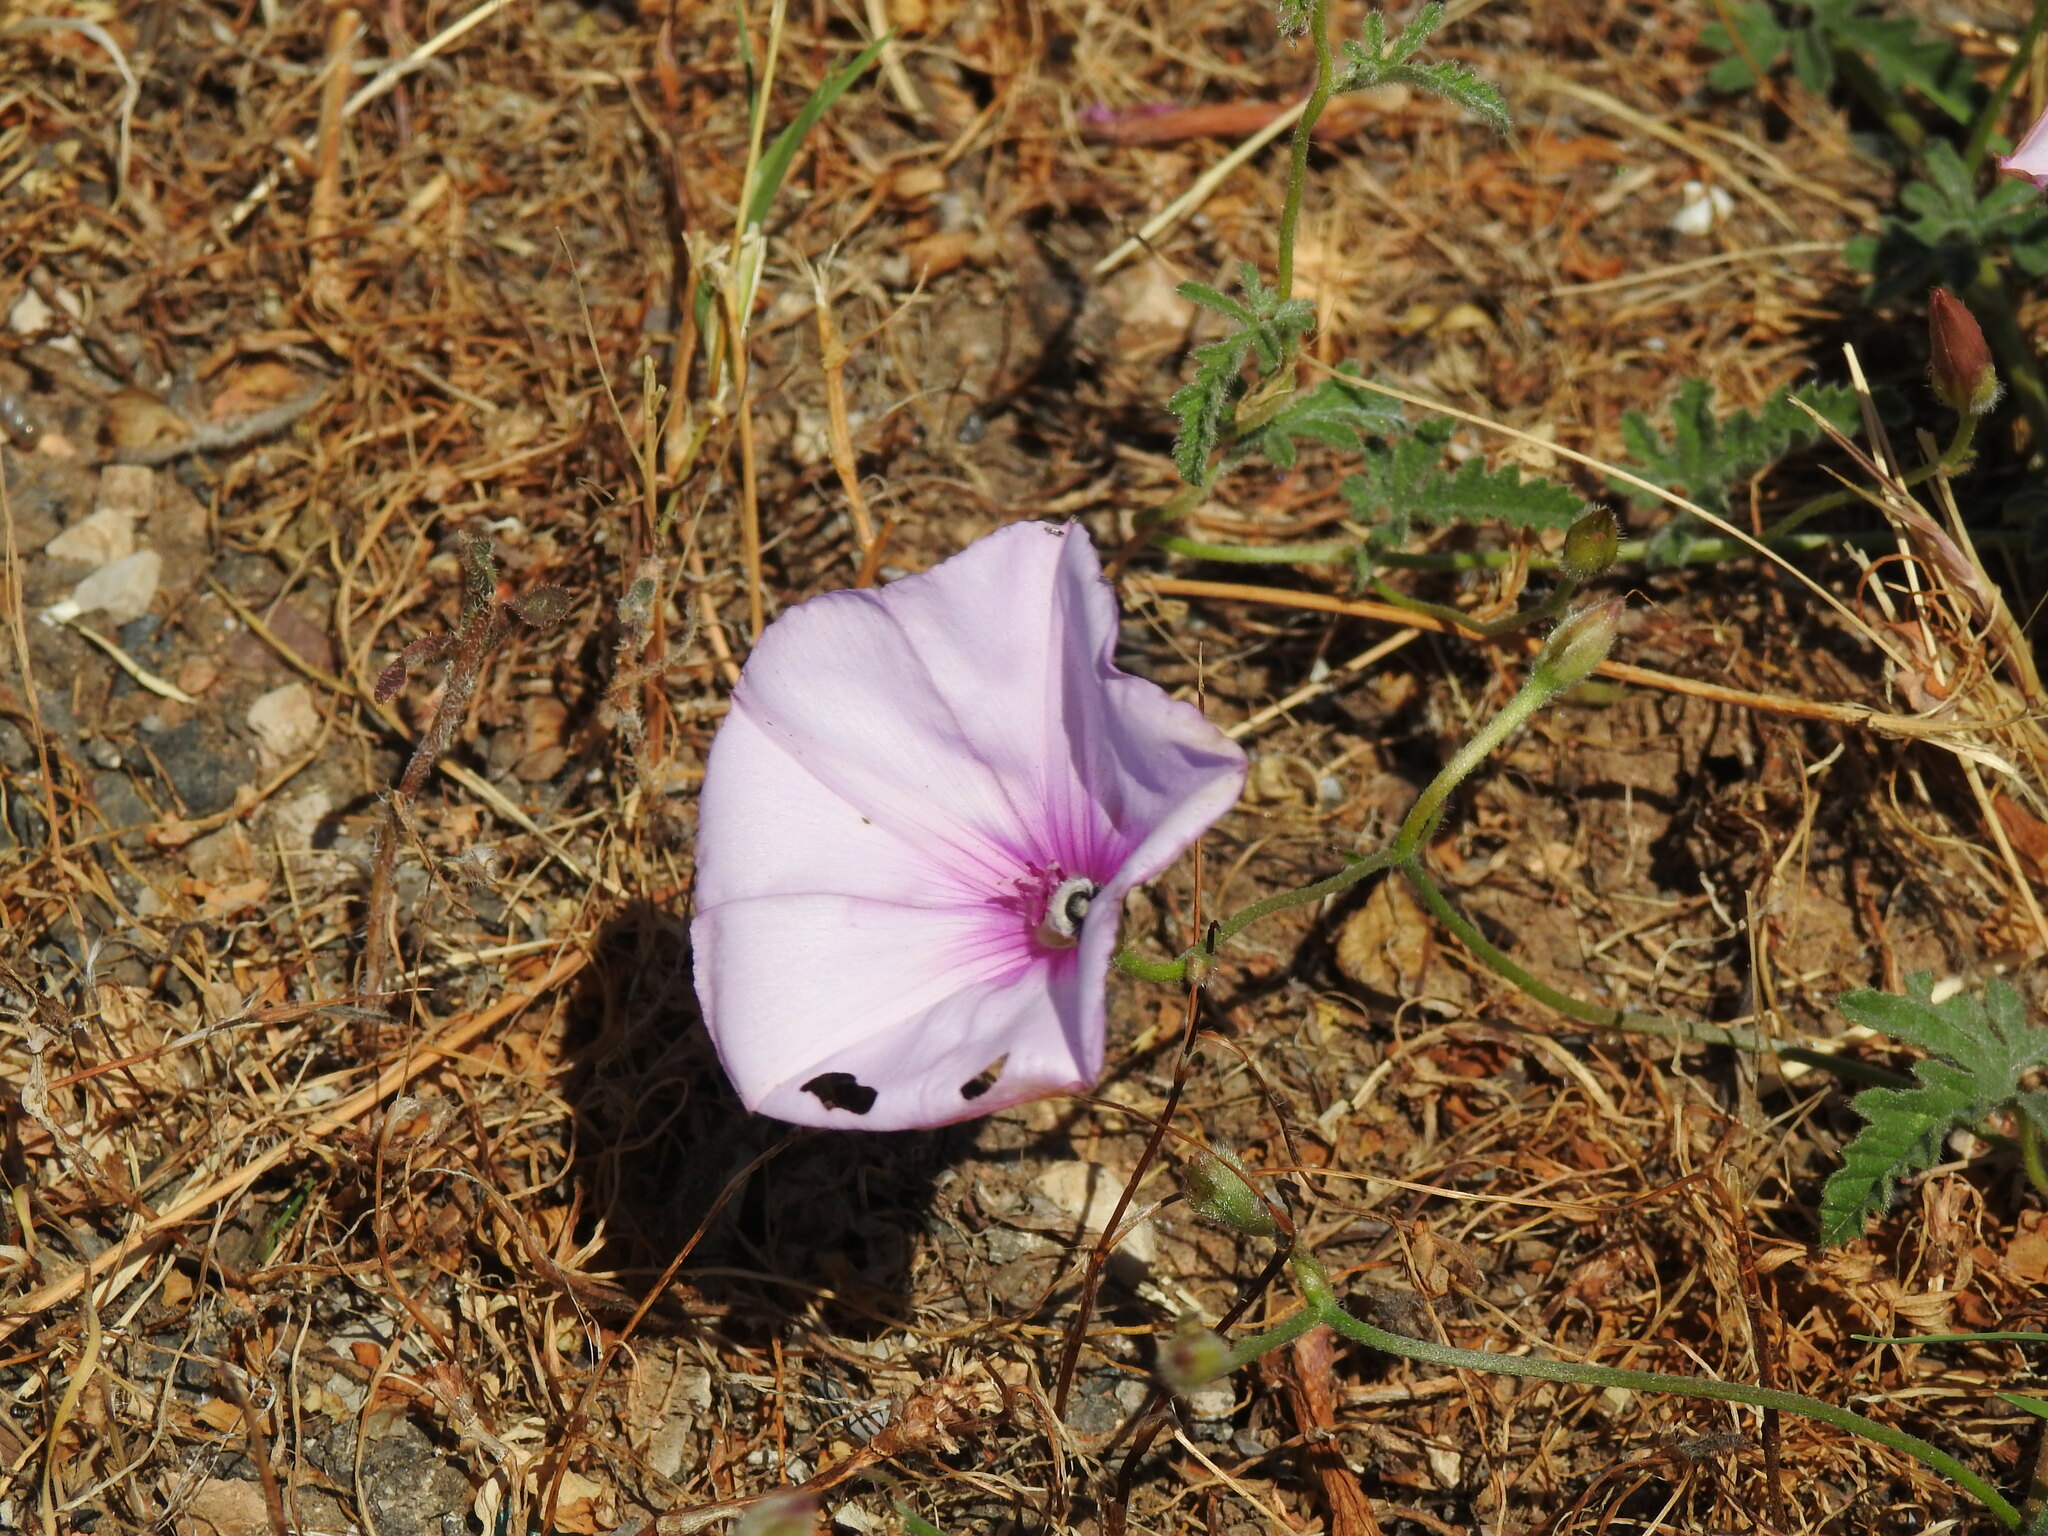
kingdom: Plantae
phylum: Tracheophyta
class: Magnoliopsida
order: Solanales
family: Convolvulaceae
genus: Convolvulus
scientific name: Convolvulus althaeoides
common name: Mallow bindweed
